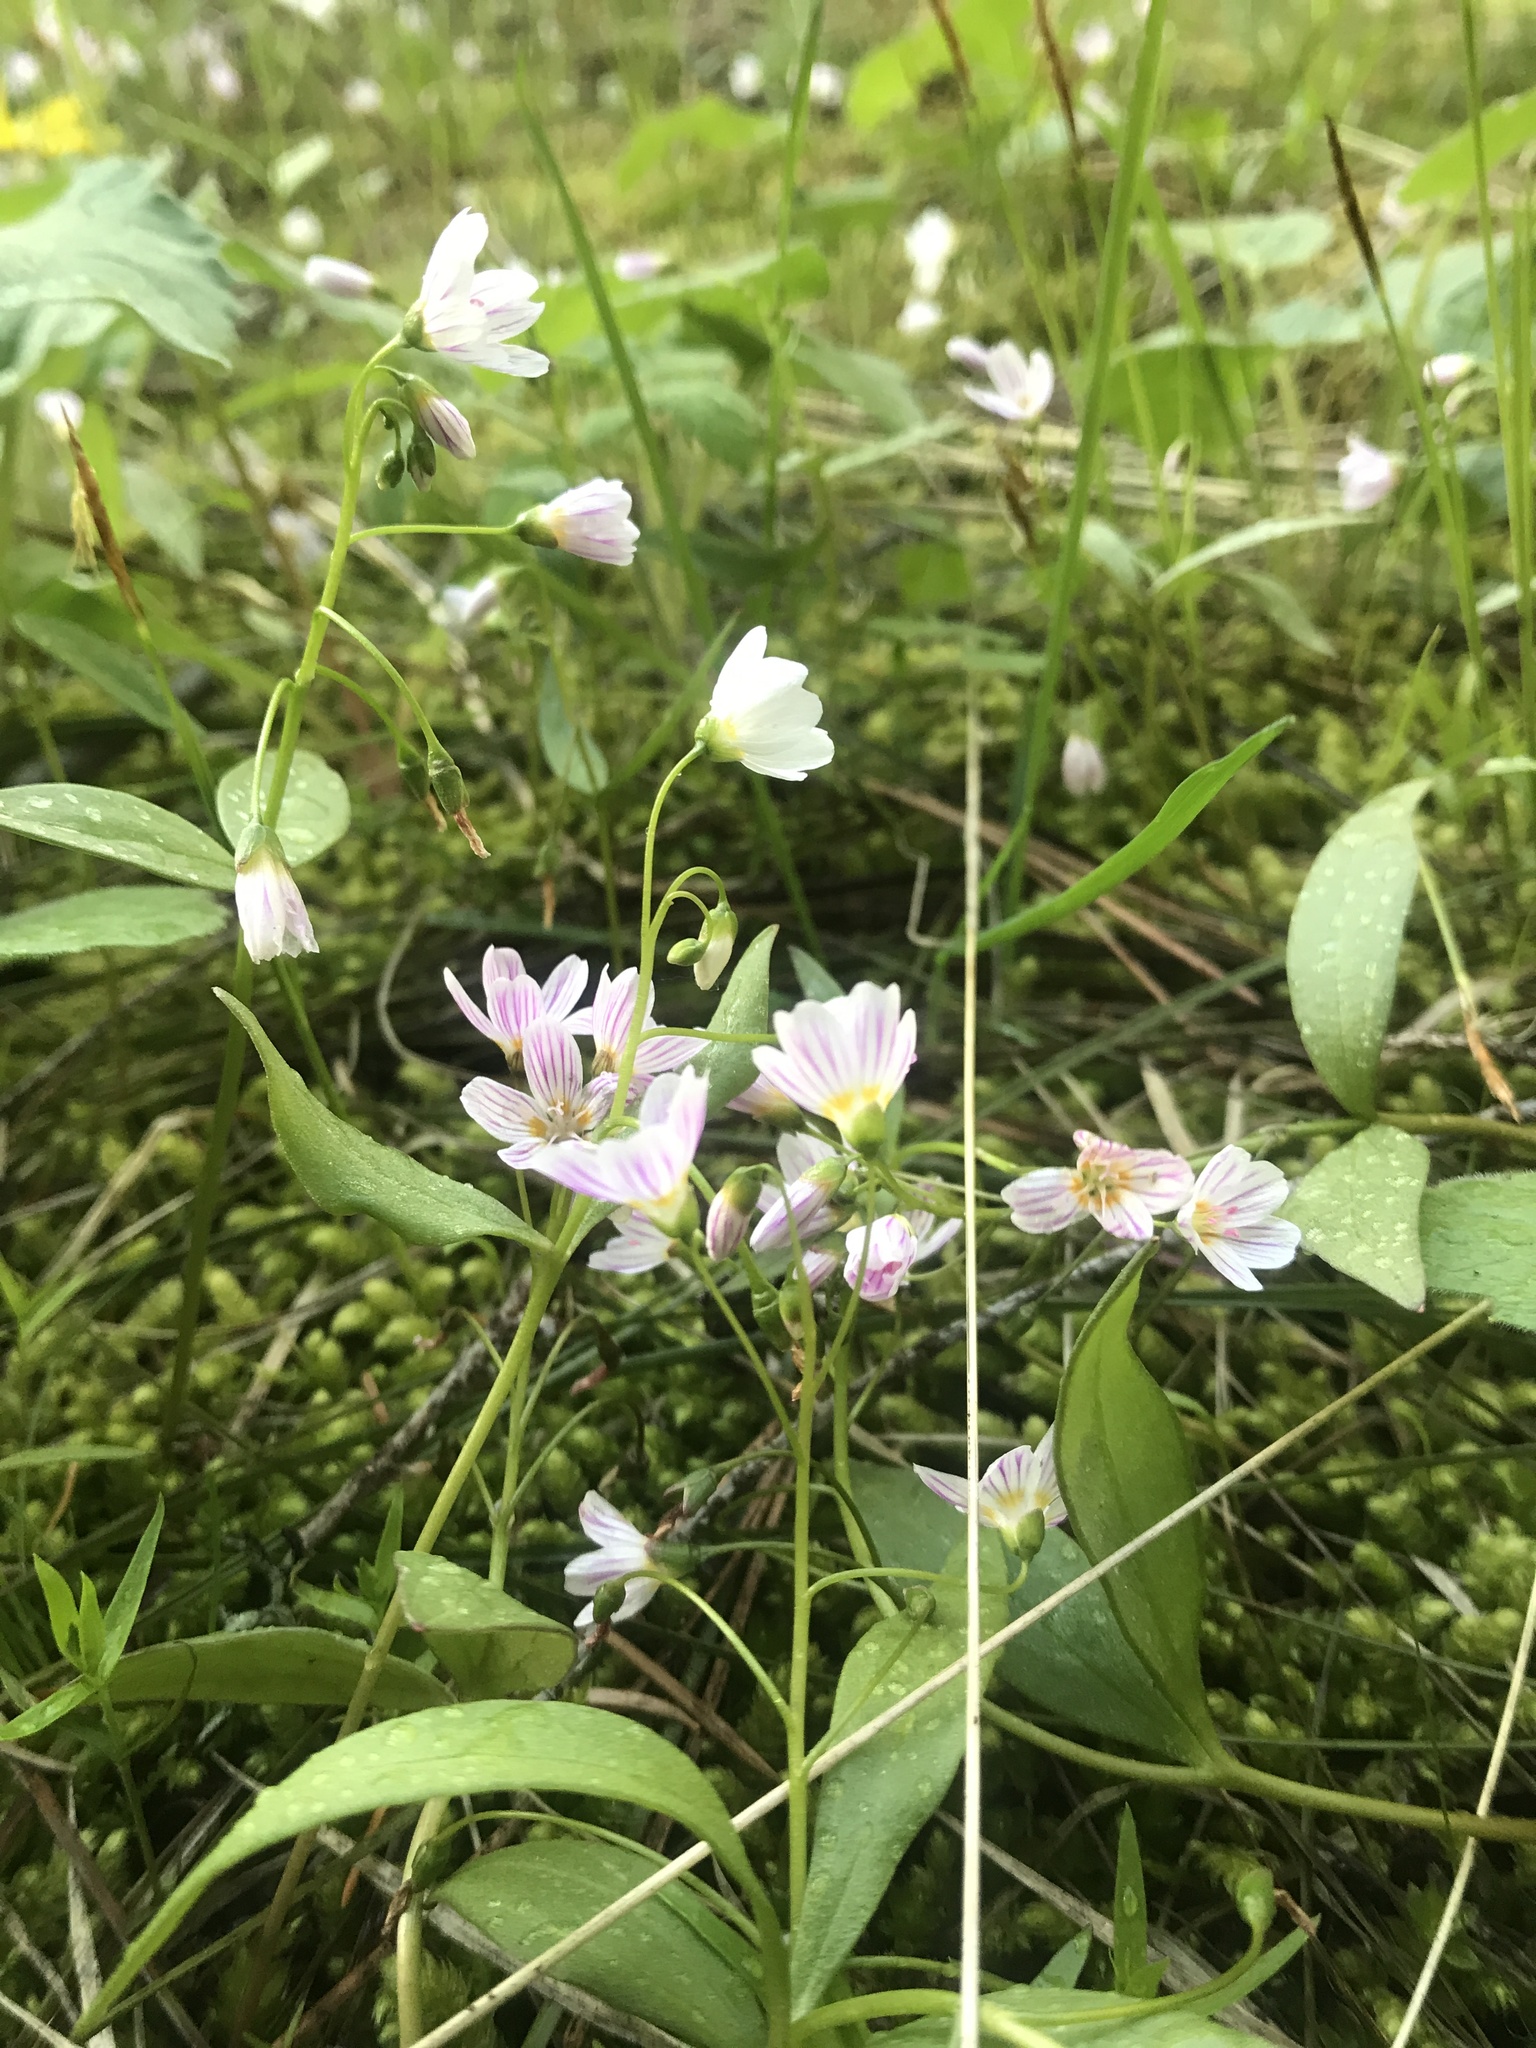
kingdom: Plantae
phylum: Tracheophyta
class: Magnoliopsida
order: Caryophyllales
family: Montiaceae
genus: Claytonia
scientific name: Claytonia lanceolata
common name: Western spring-beauty
